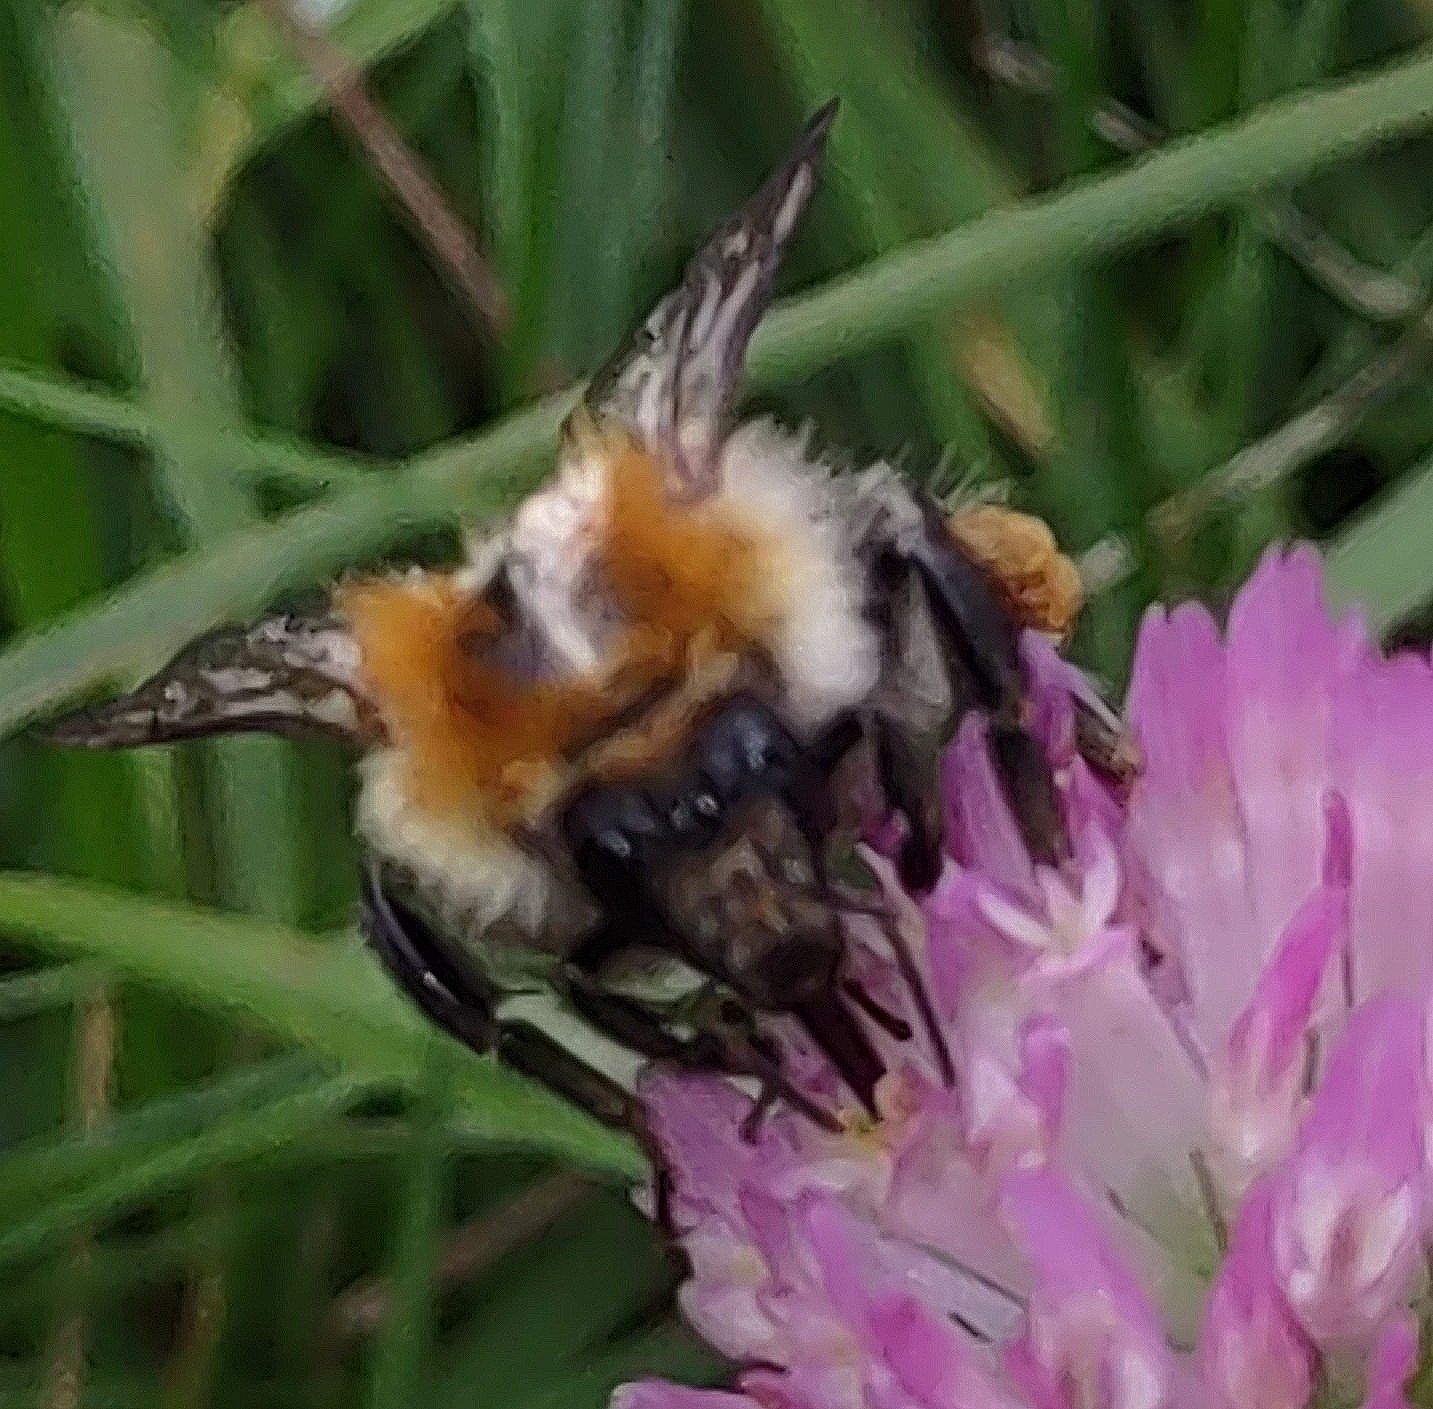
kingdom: Animalia
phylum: Arthropoda
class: Insecta
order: Hymenoptera
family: Apidae
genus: Bombus
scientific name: Bombus pascuorum
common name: Common carder bee
